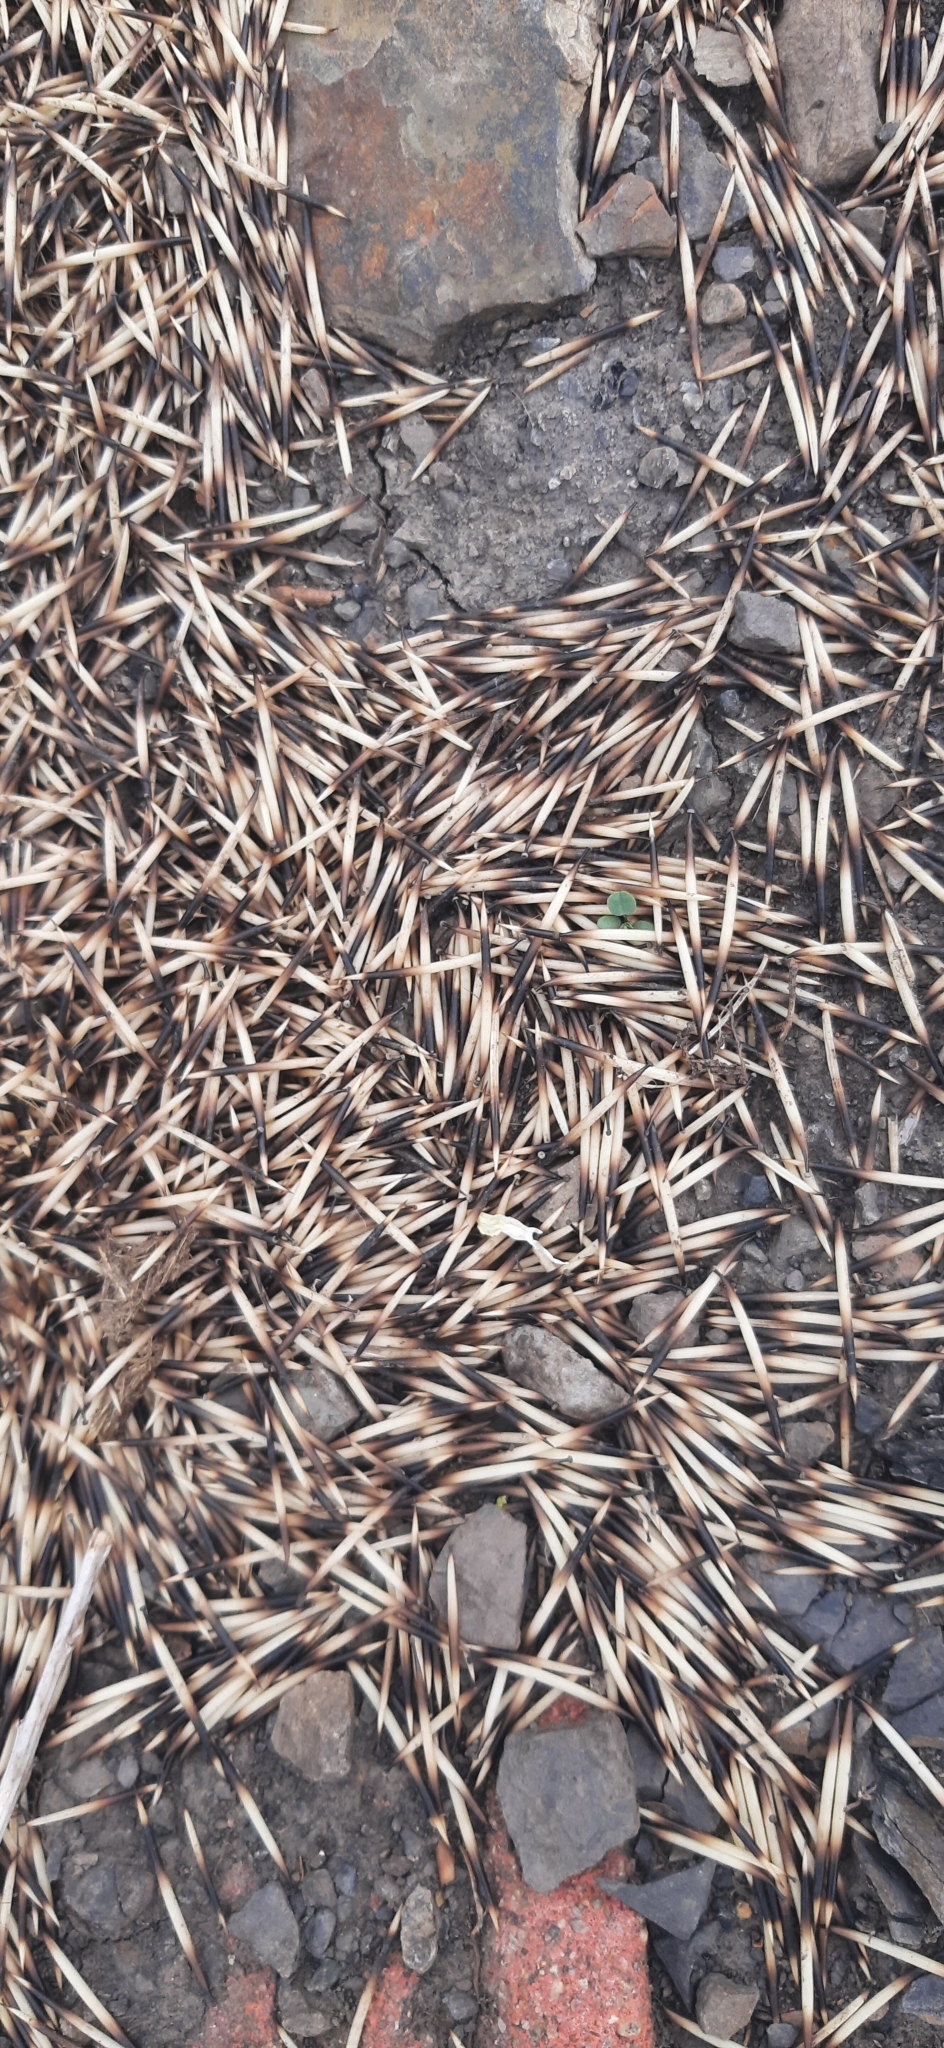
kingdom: Animalia
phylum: Chordata
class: Mammalia
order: Erinaceomorpha
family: Erinaceidae
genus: Erinaceus
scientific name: Erinaceus europaeus
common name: West european hedgehog
